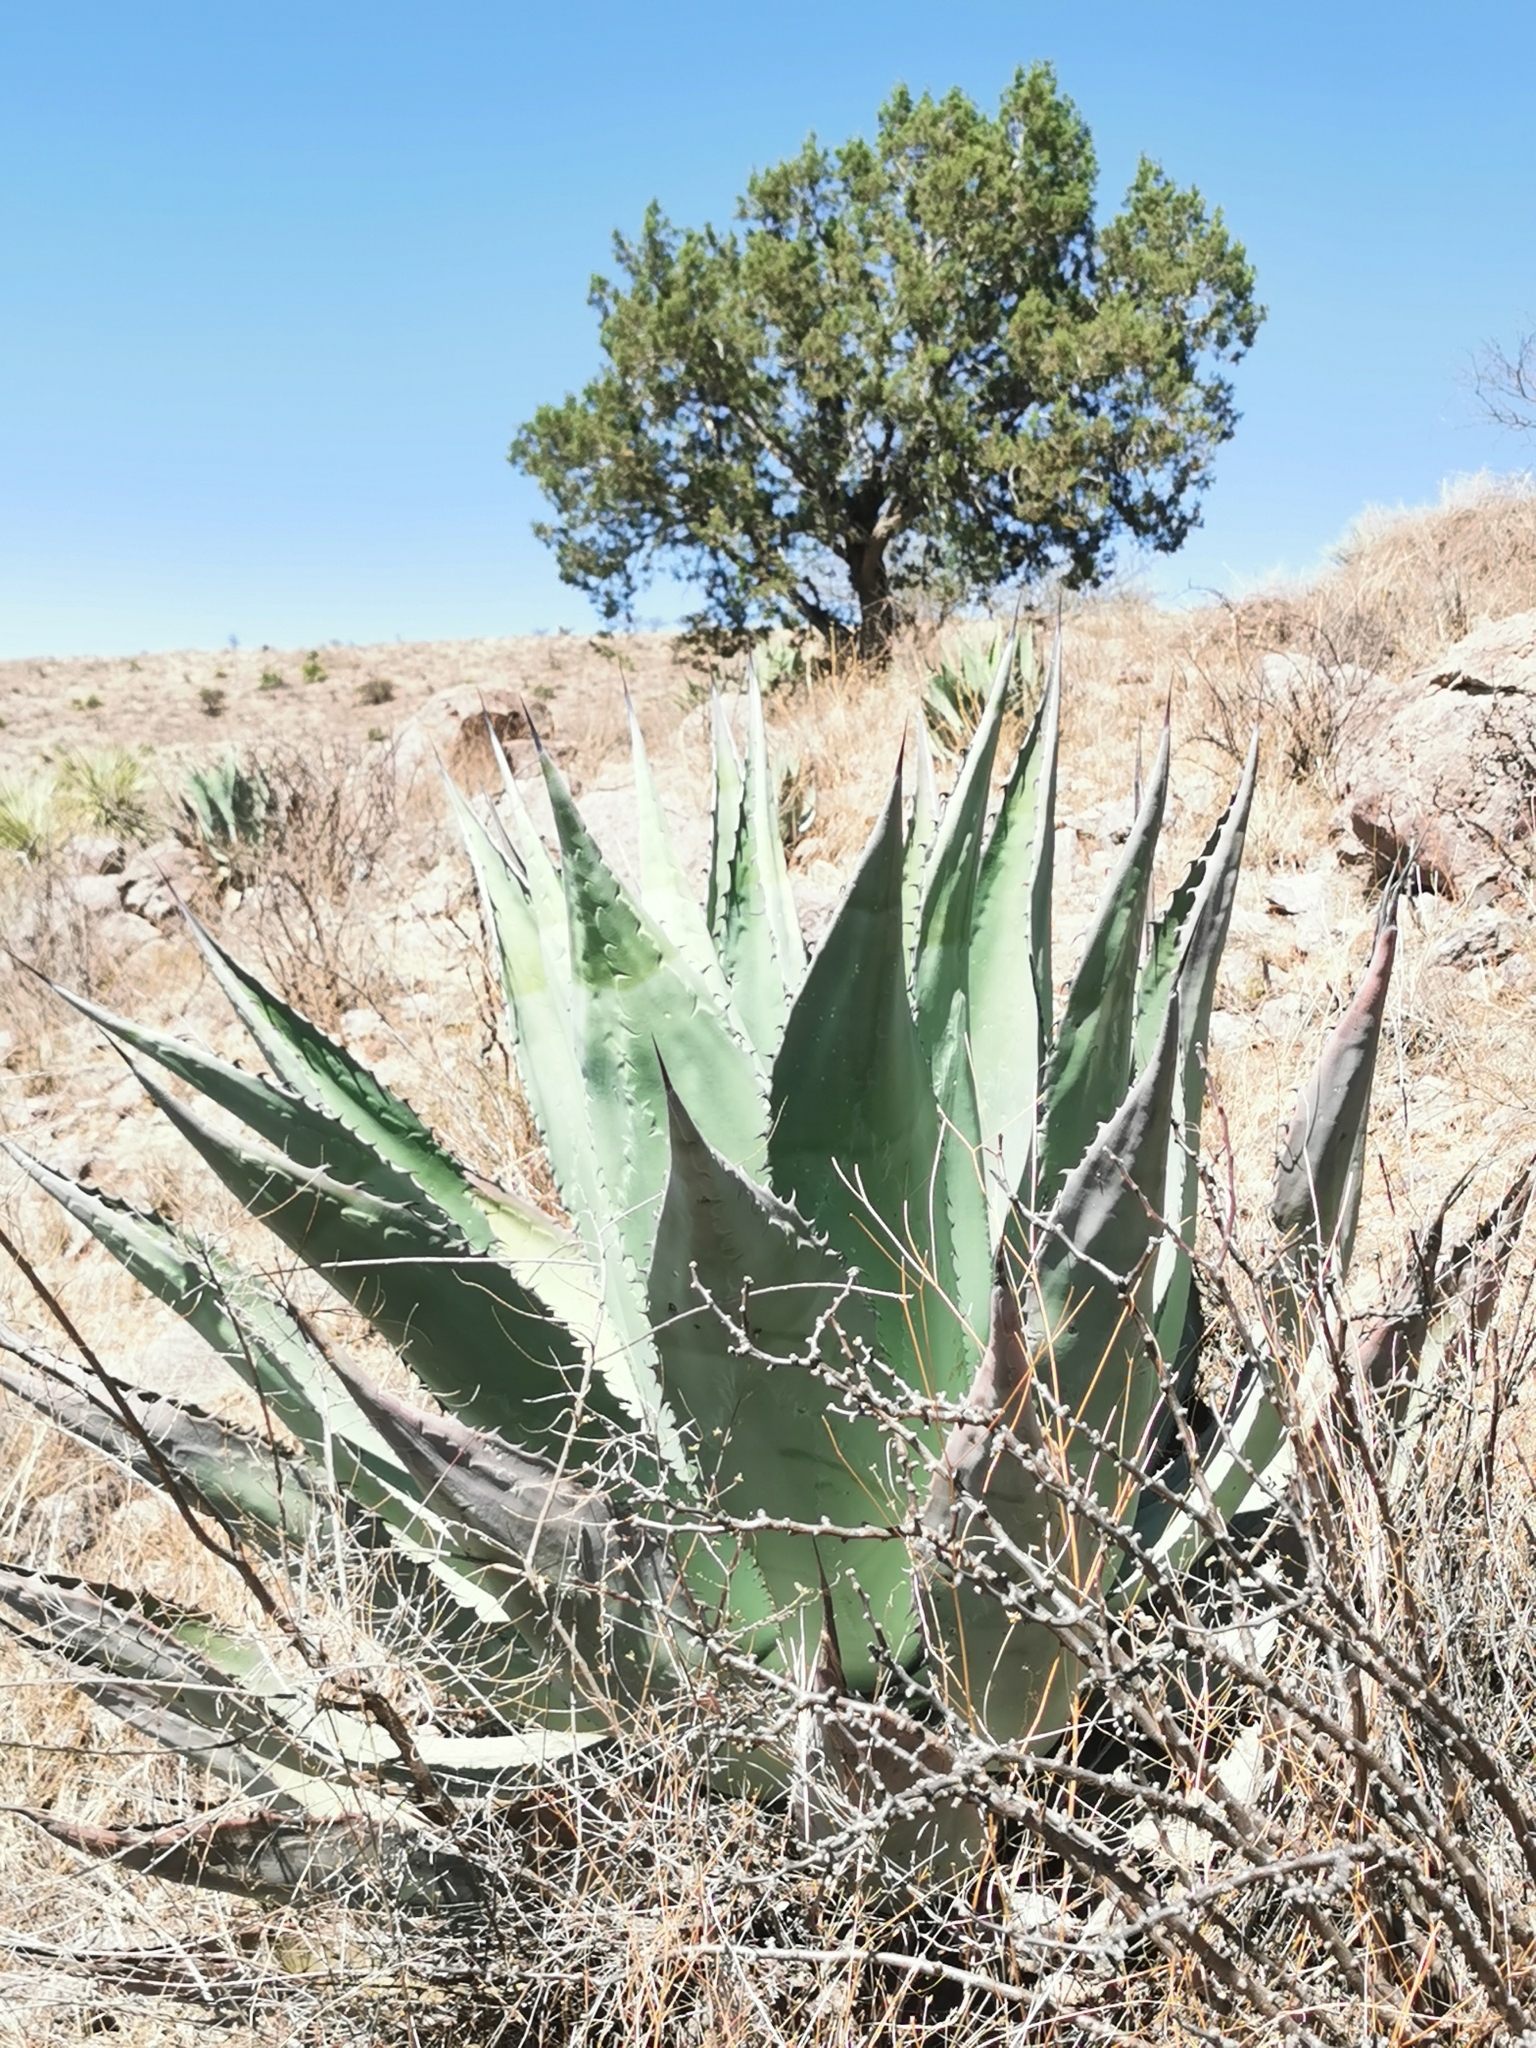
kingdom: Plantae
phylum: Tracheophyta
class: Liliopsida
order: Asparagales
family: Asparagaceae
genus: Agave
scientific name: Agave durangensis
